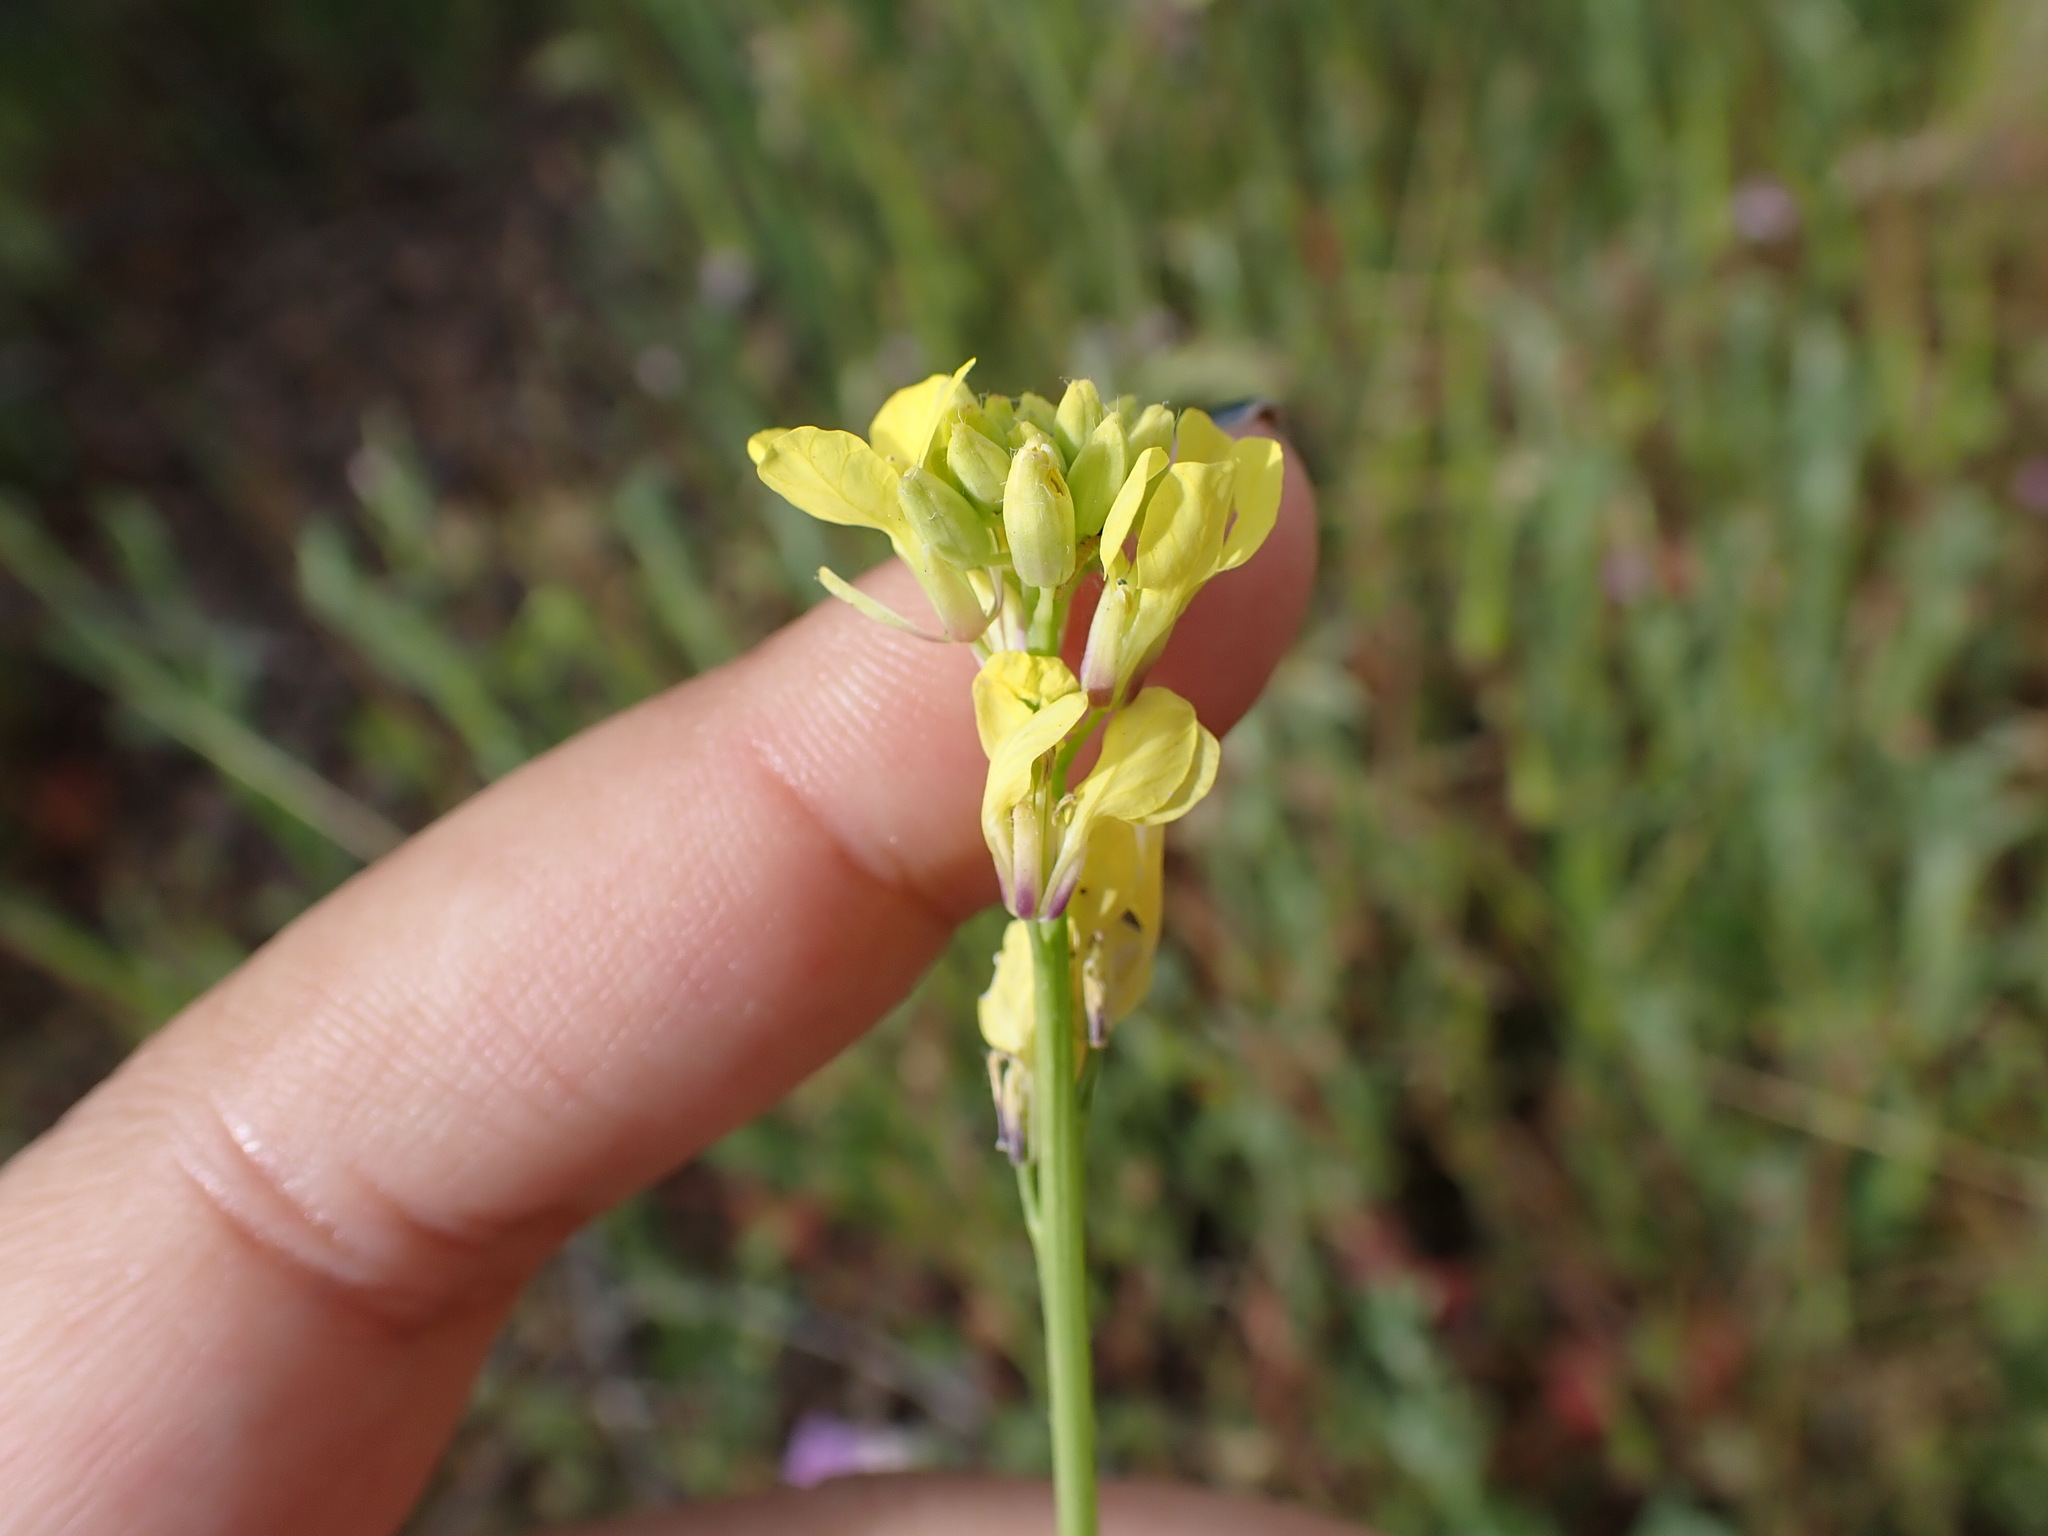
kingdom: Plantae
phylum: Tracheophyta
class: Magnoliopsida
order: Brassicales
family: Brassicaceae
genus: Hirschfeldia
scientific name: Hirschfeldia incana
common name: Hoary mustard
